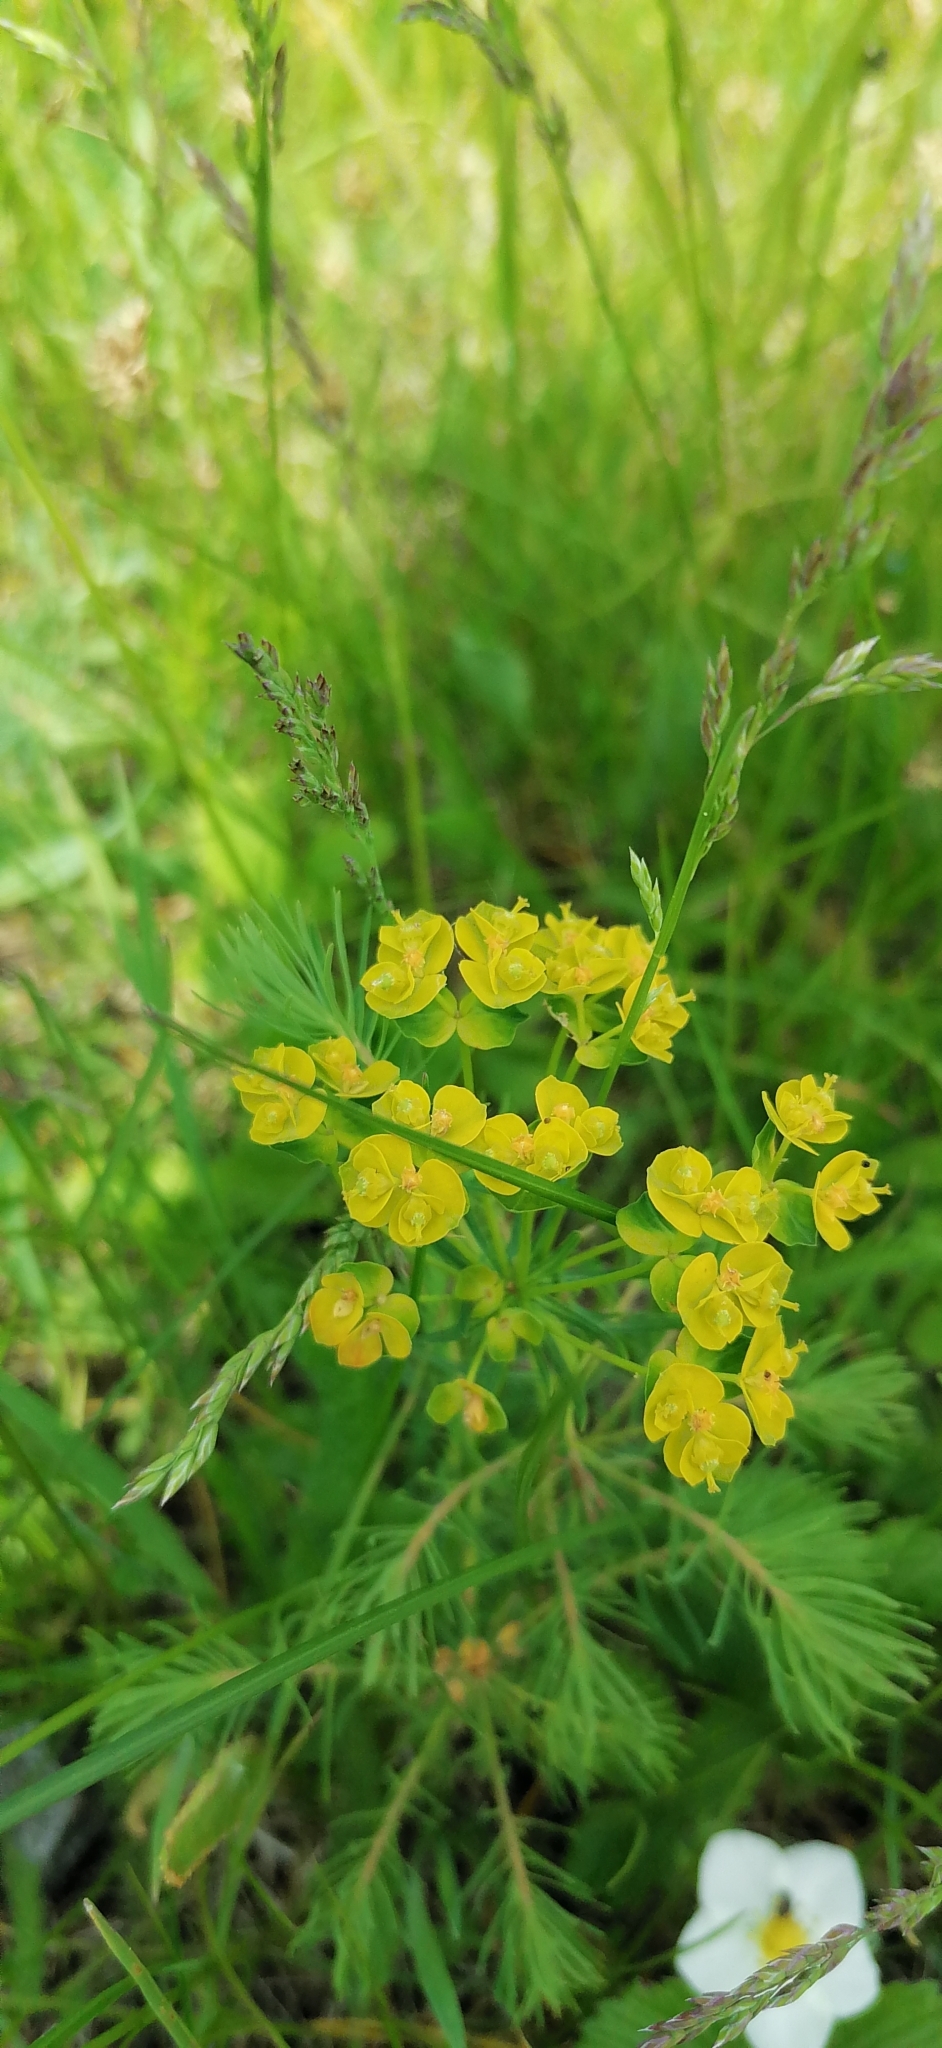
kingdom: Plantae
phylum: Tracheophyta
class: Magnoliopsida
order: Malpighiales
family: Euphorbiaceae
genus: Euphorbia
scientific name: Euphorbia cyparissias
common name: Cypress spurge
